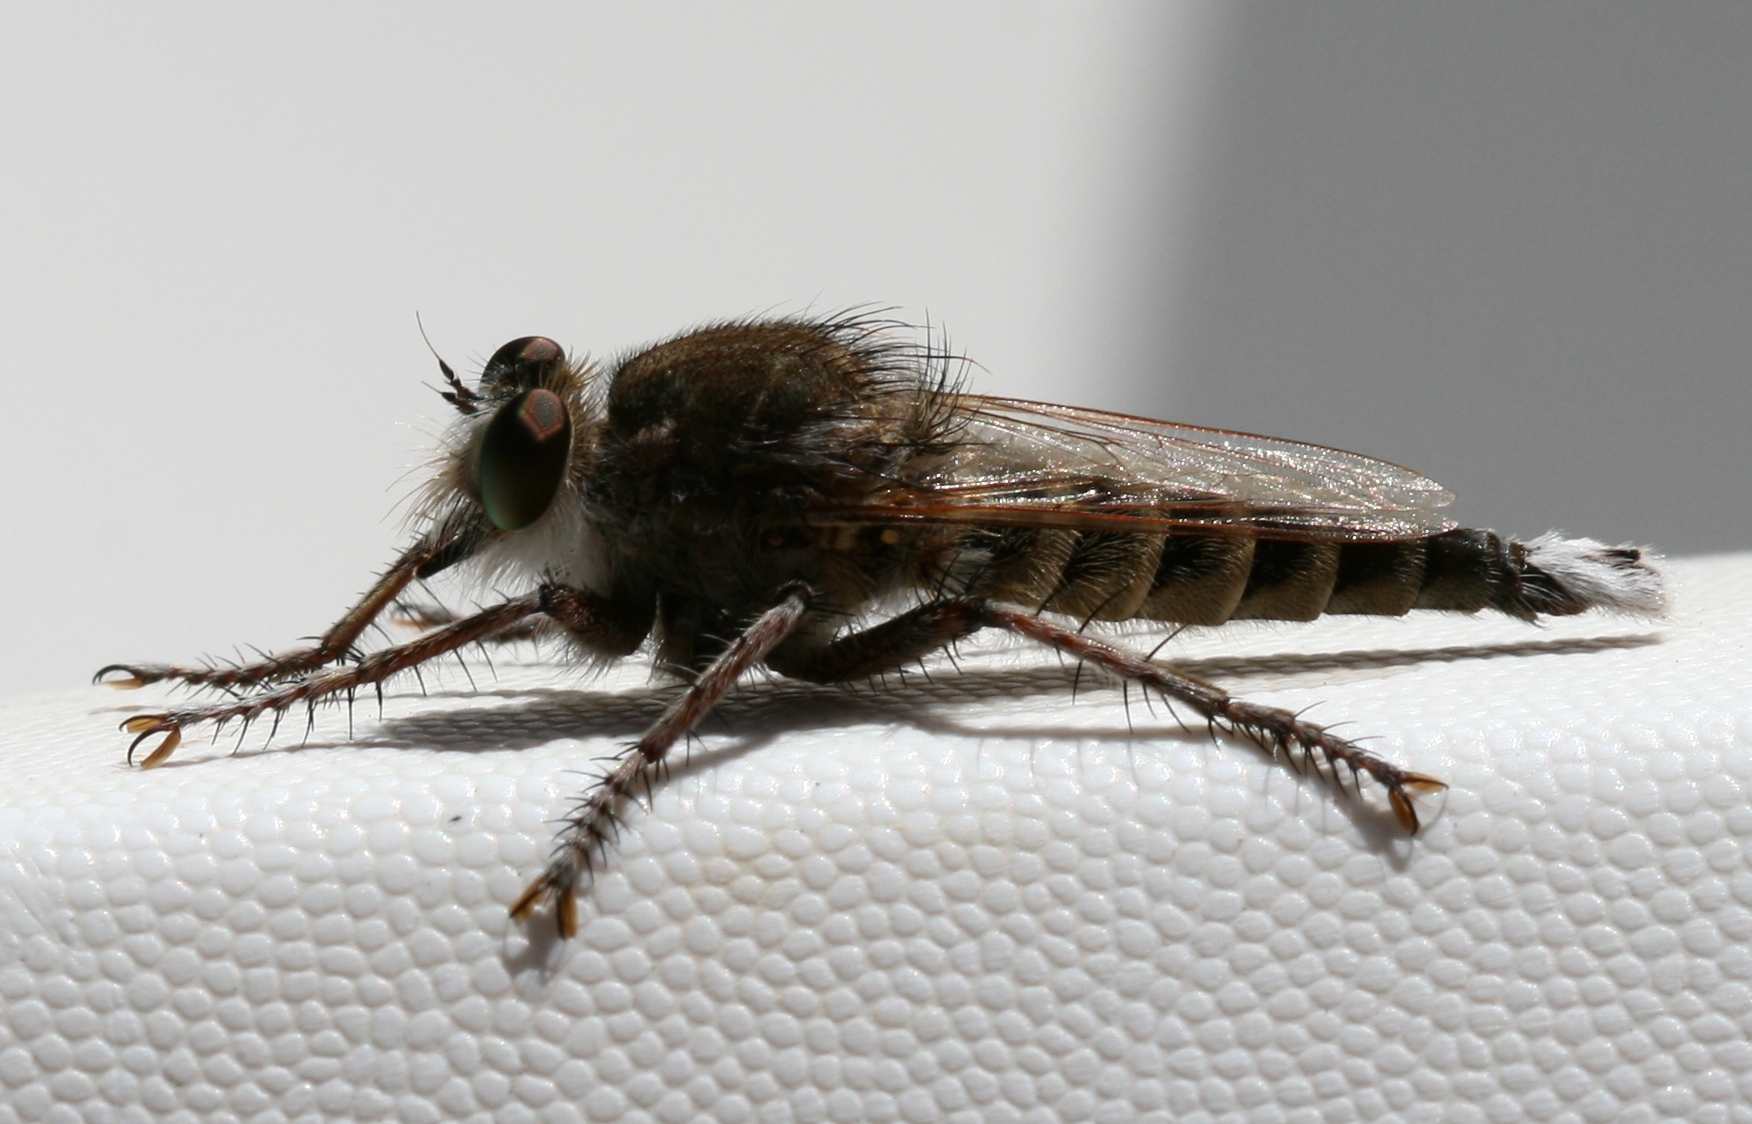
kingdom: Animalia
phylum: Arthropoda
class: Insecta
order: Diptera
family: Asilidae
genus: Promachus
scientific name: Promachus consanguineus
